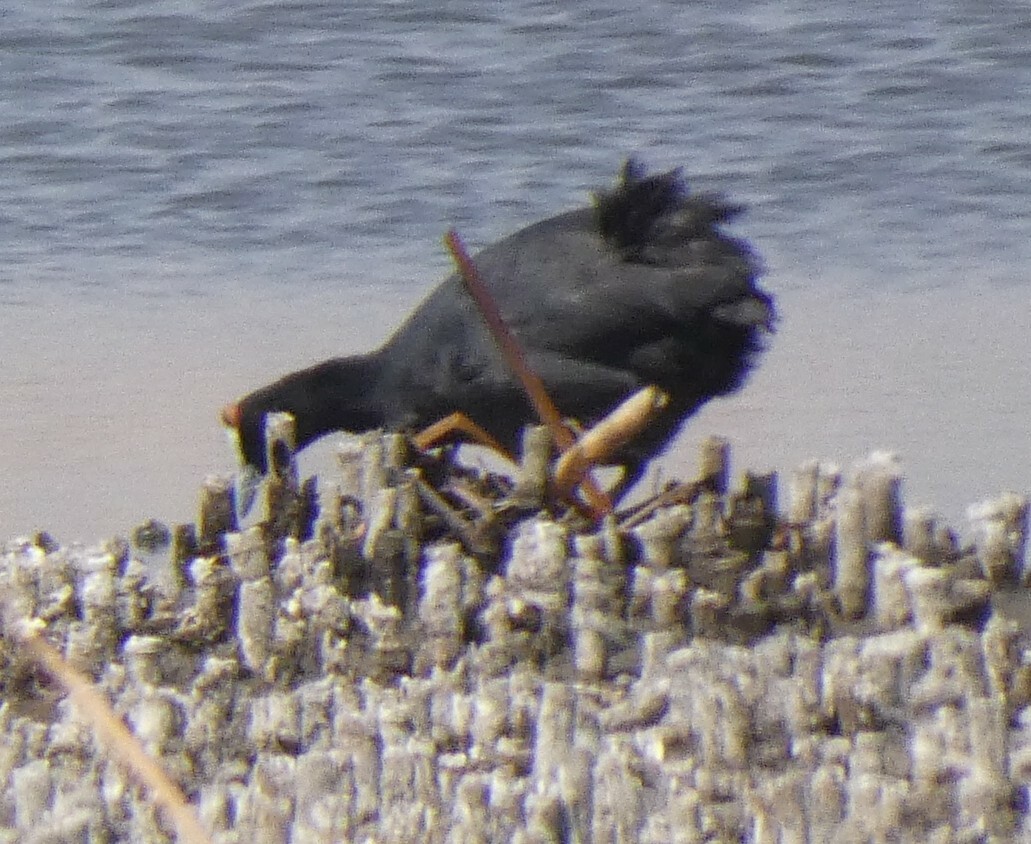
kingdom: Animalia
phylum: Chordata
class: Aves
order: Gruiformes
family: Rallidae
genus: Fulica
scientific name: Fulica cristata
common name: Red-knobbed coot
